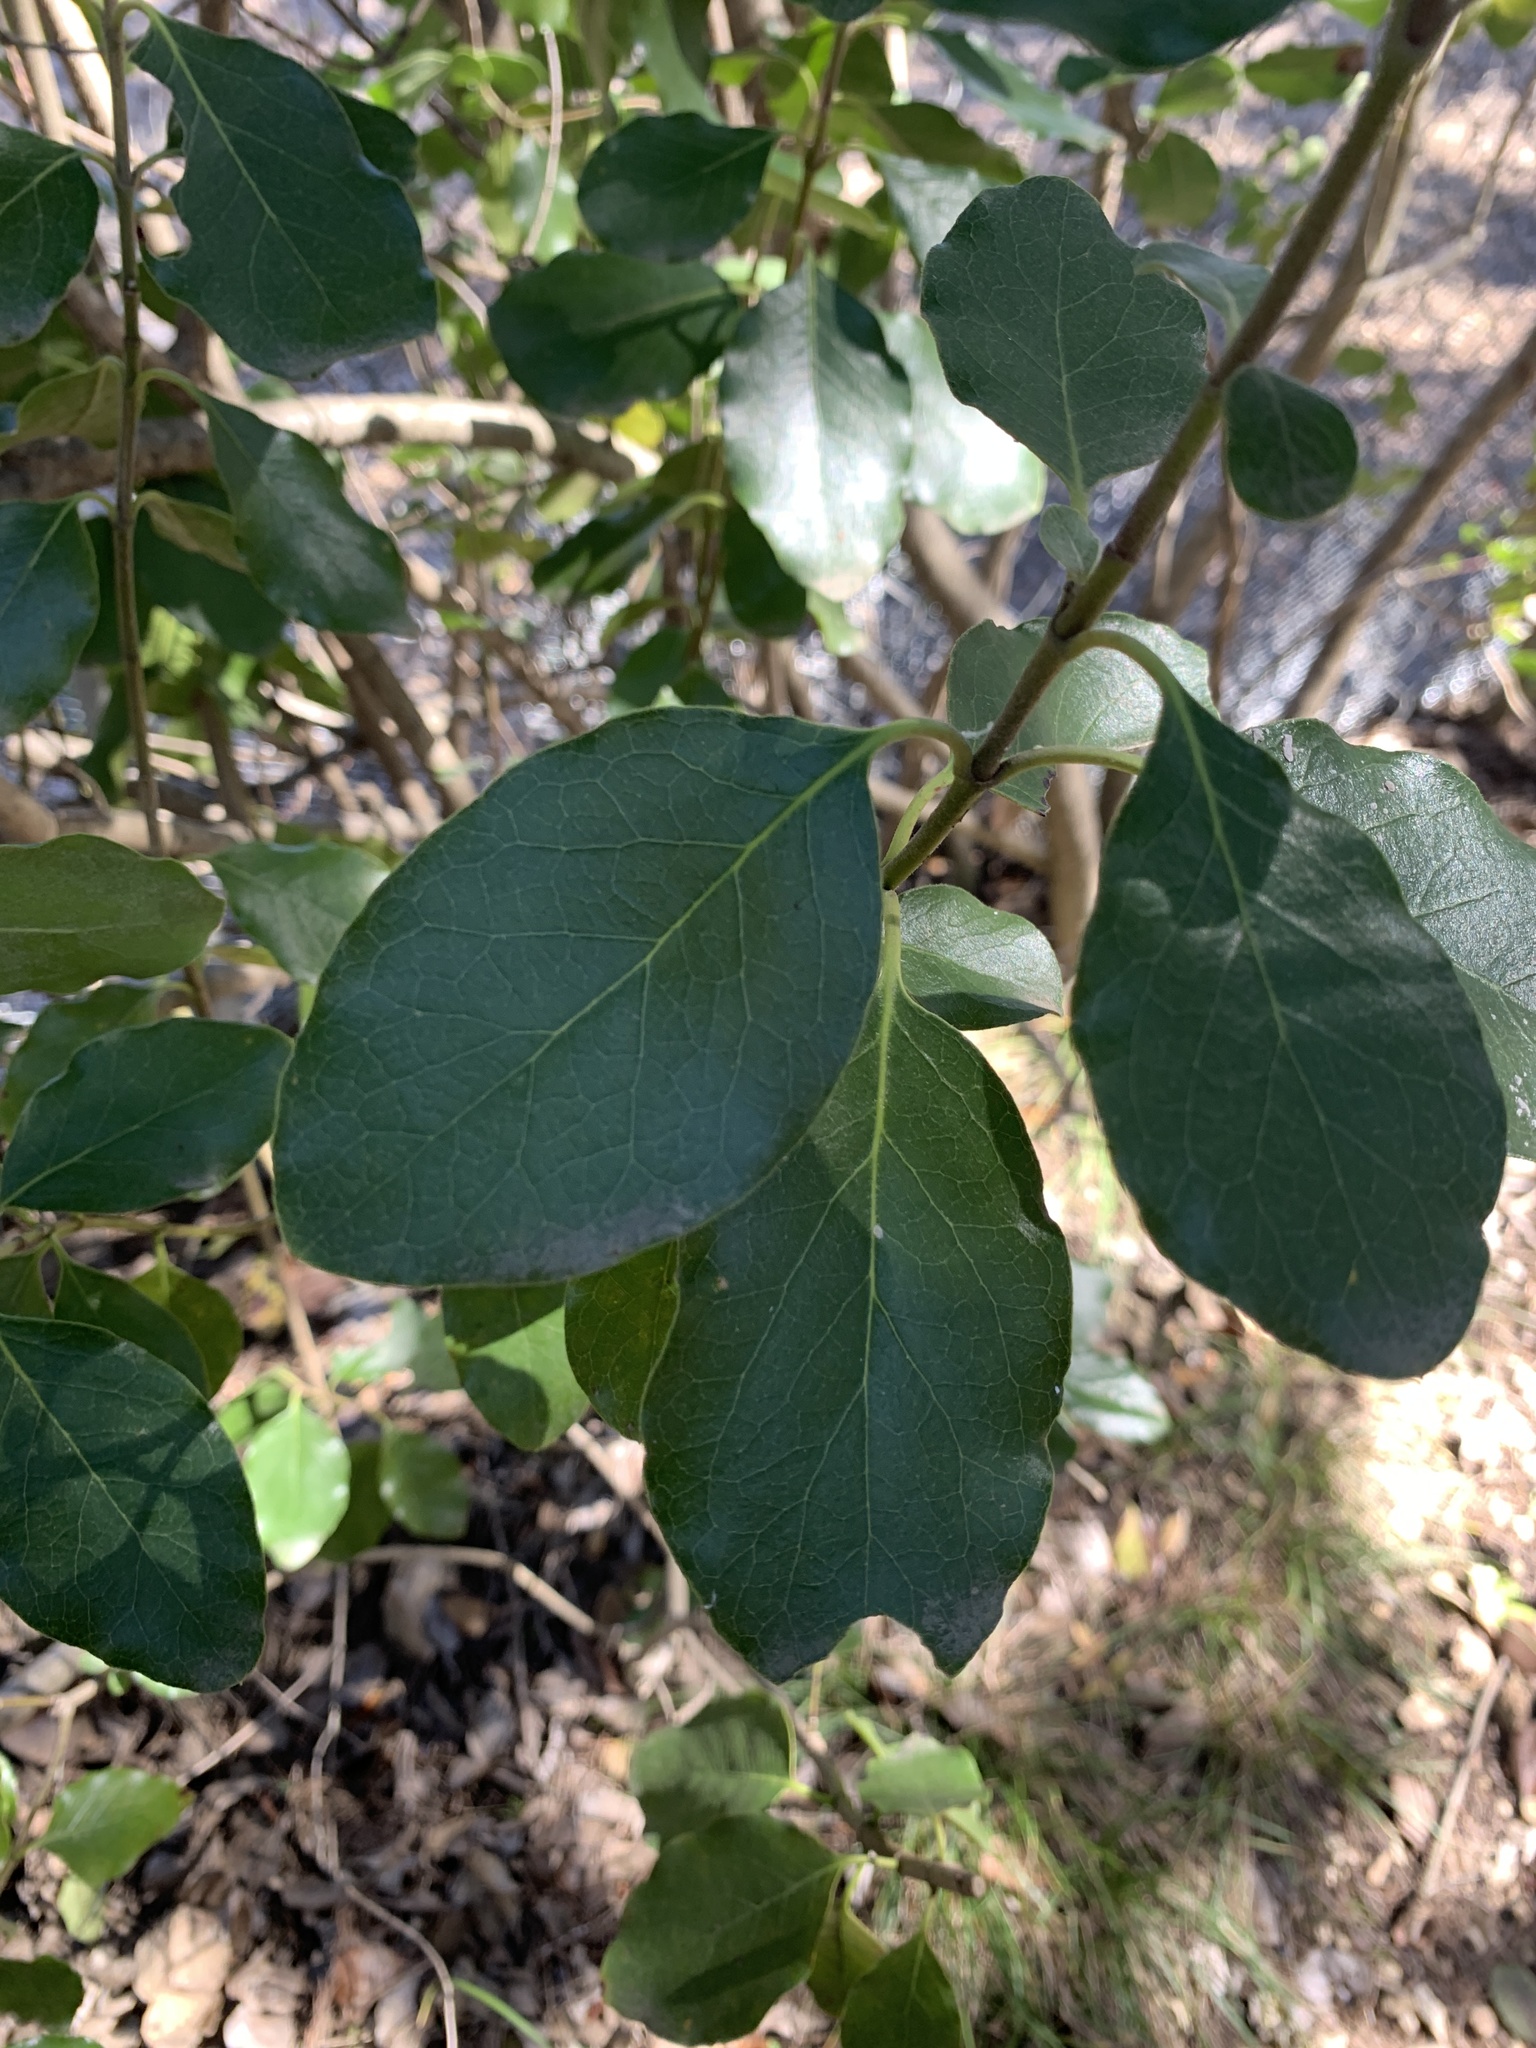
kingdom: Plantae
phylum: Tracheophyta
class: Magnoliopsida
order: Garryales
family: Garryaceae
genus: Garrya
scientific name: Garrya lindheimeri
